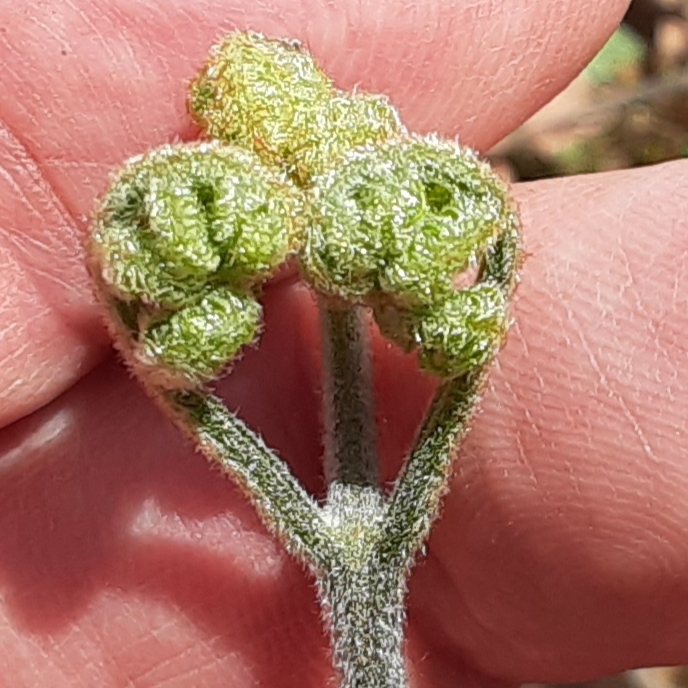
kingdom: Plantae
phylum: Tracheophyta
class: Magnoliopsida
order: Lamiales
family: Orobanchaceae
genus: Pedicularis
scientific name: Pedicularis canadensis
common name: Early lousewort
